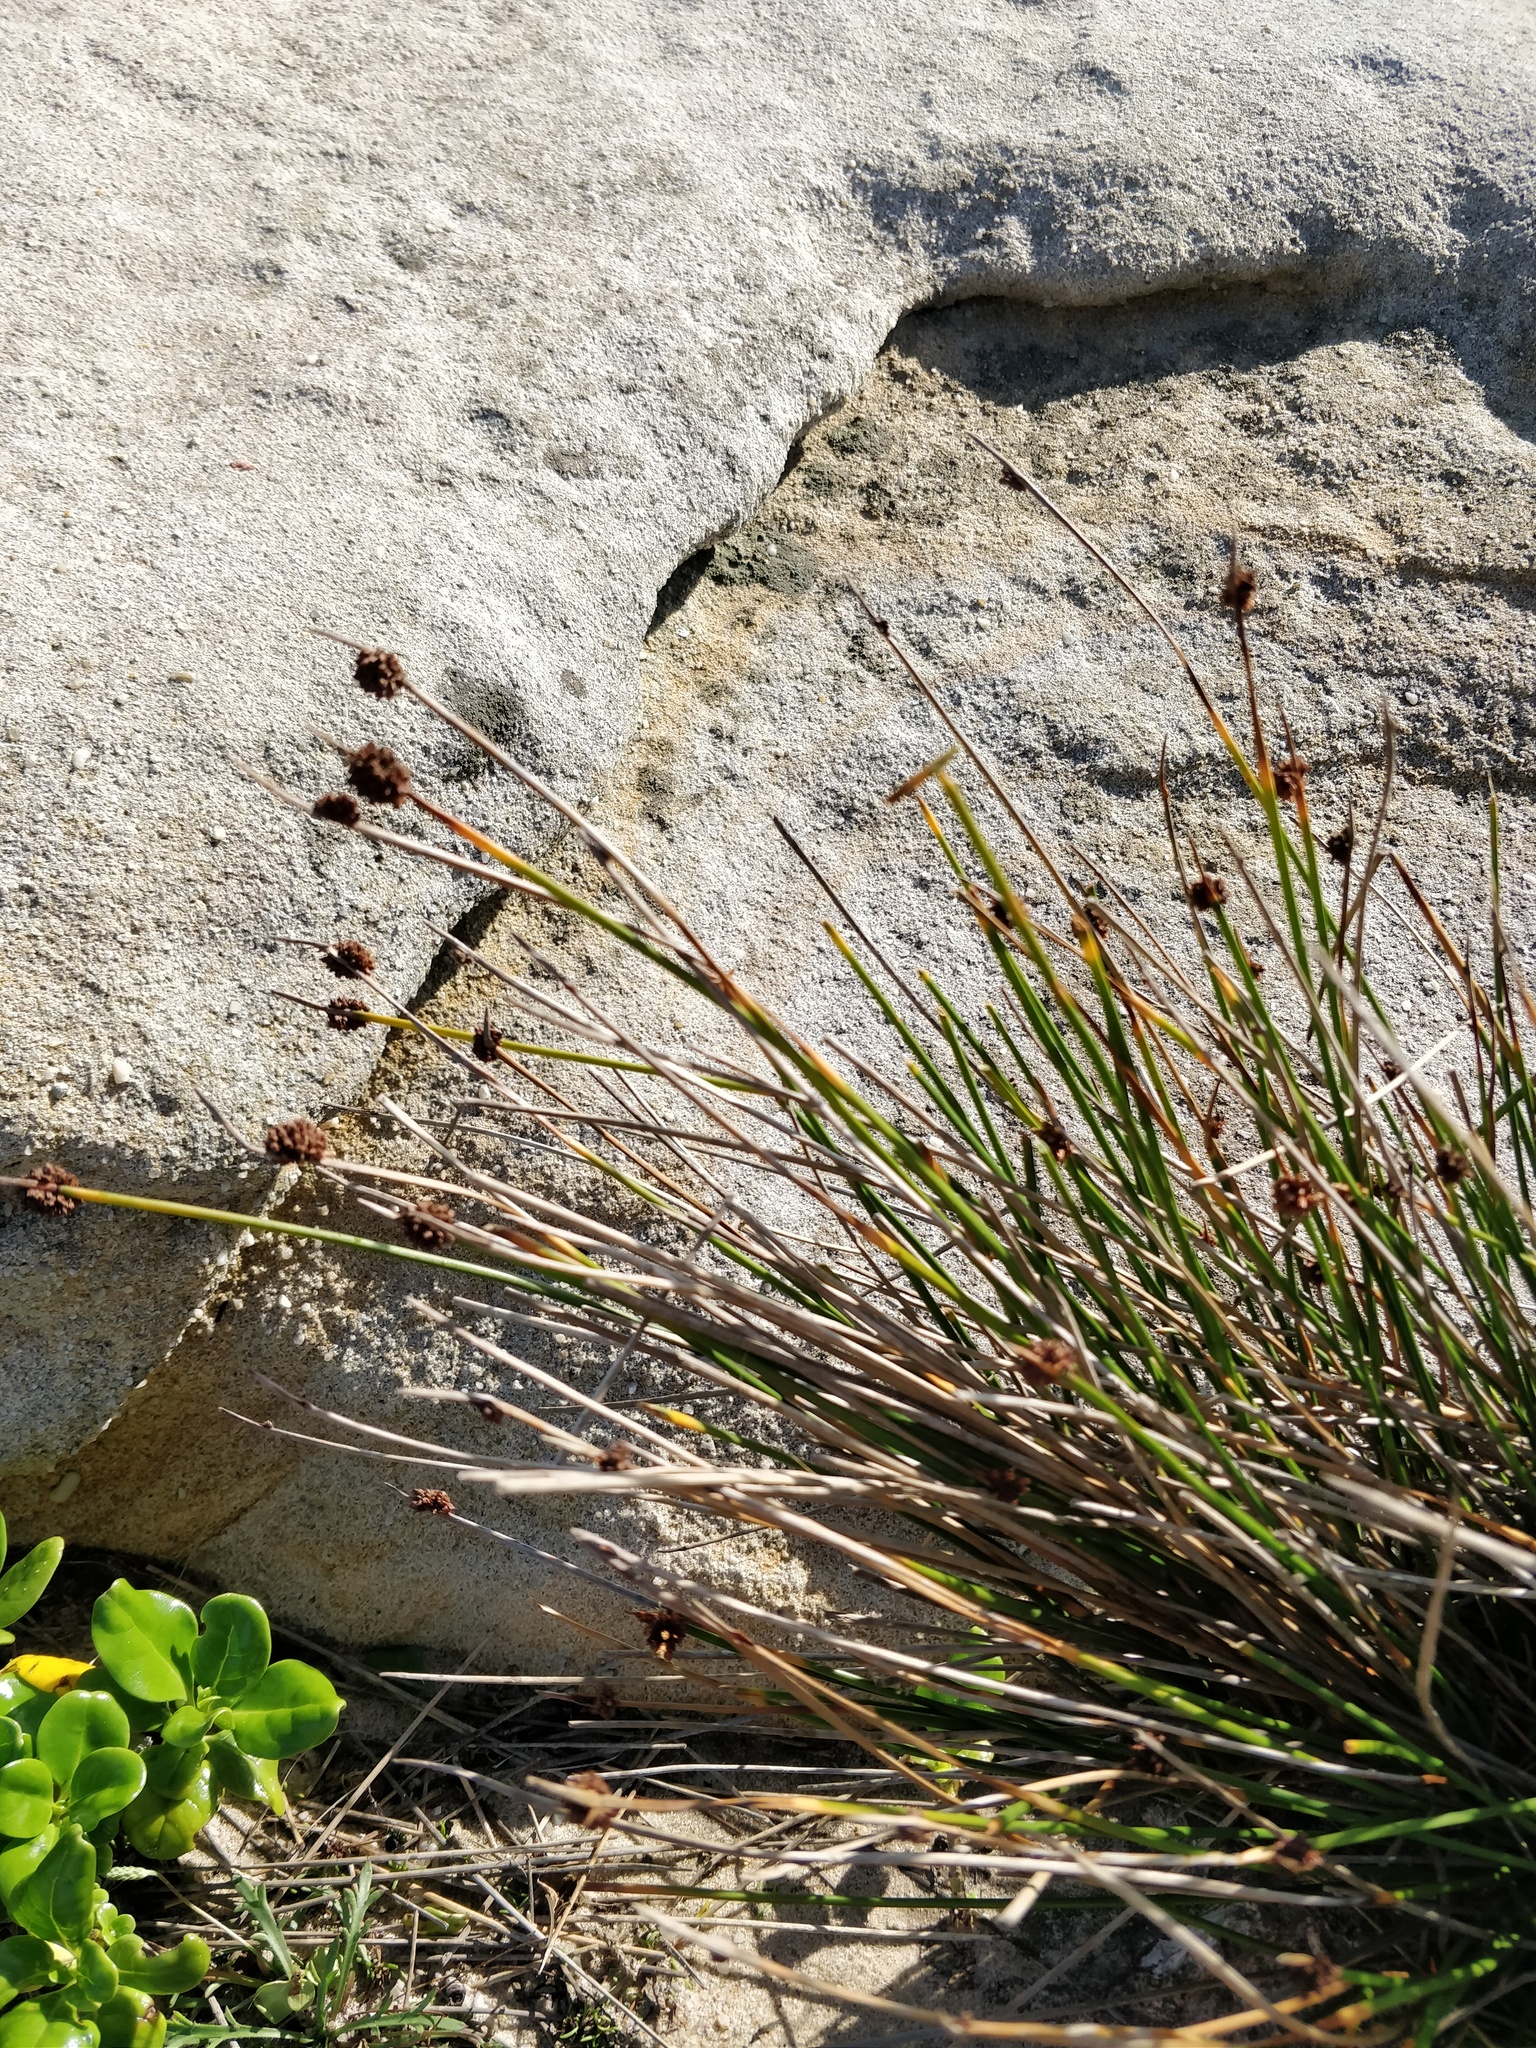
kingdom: Plantae
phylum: Tracheophyta
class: Liliopsida
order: Poales
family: Cyperaceae
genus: Ficinia
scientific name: Ficinia nodosa
